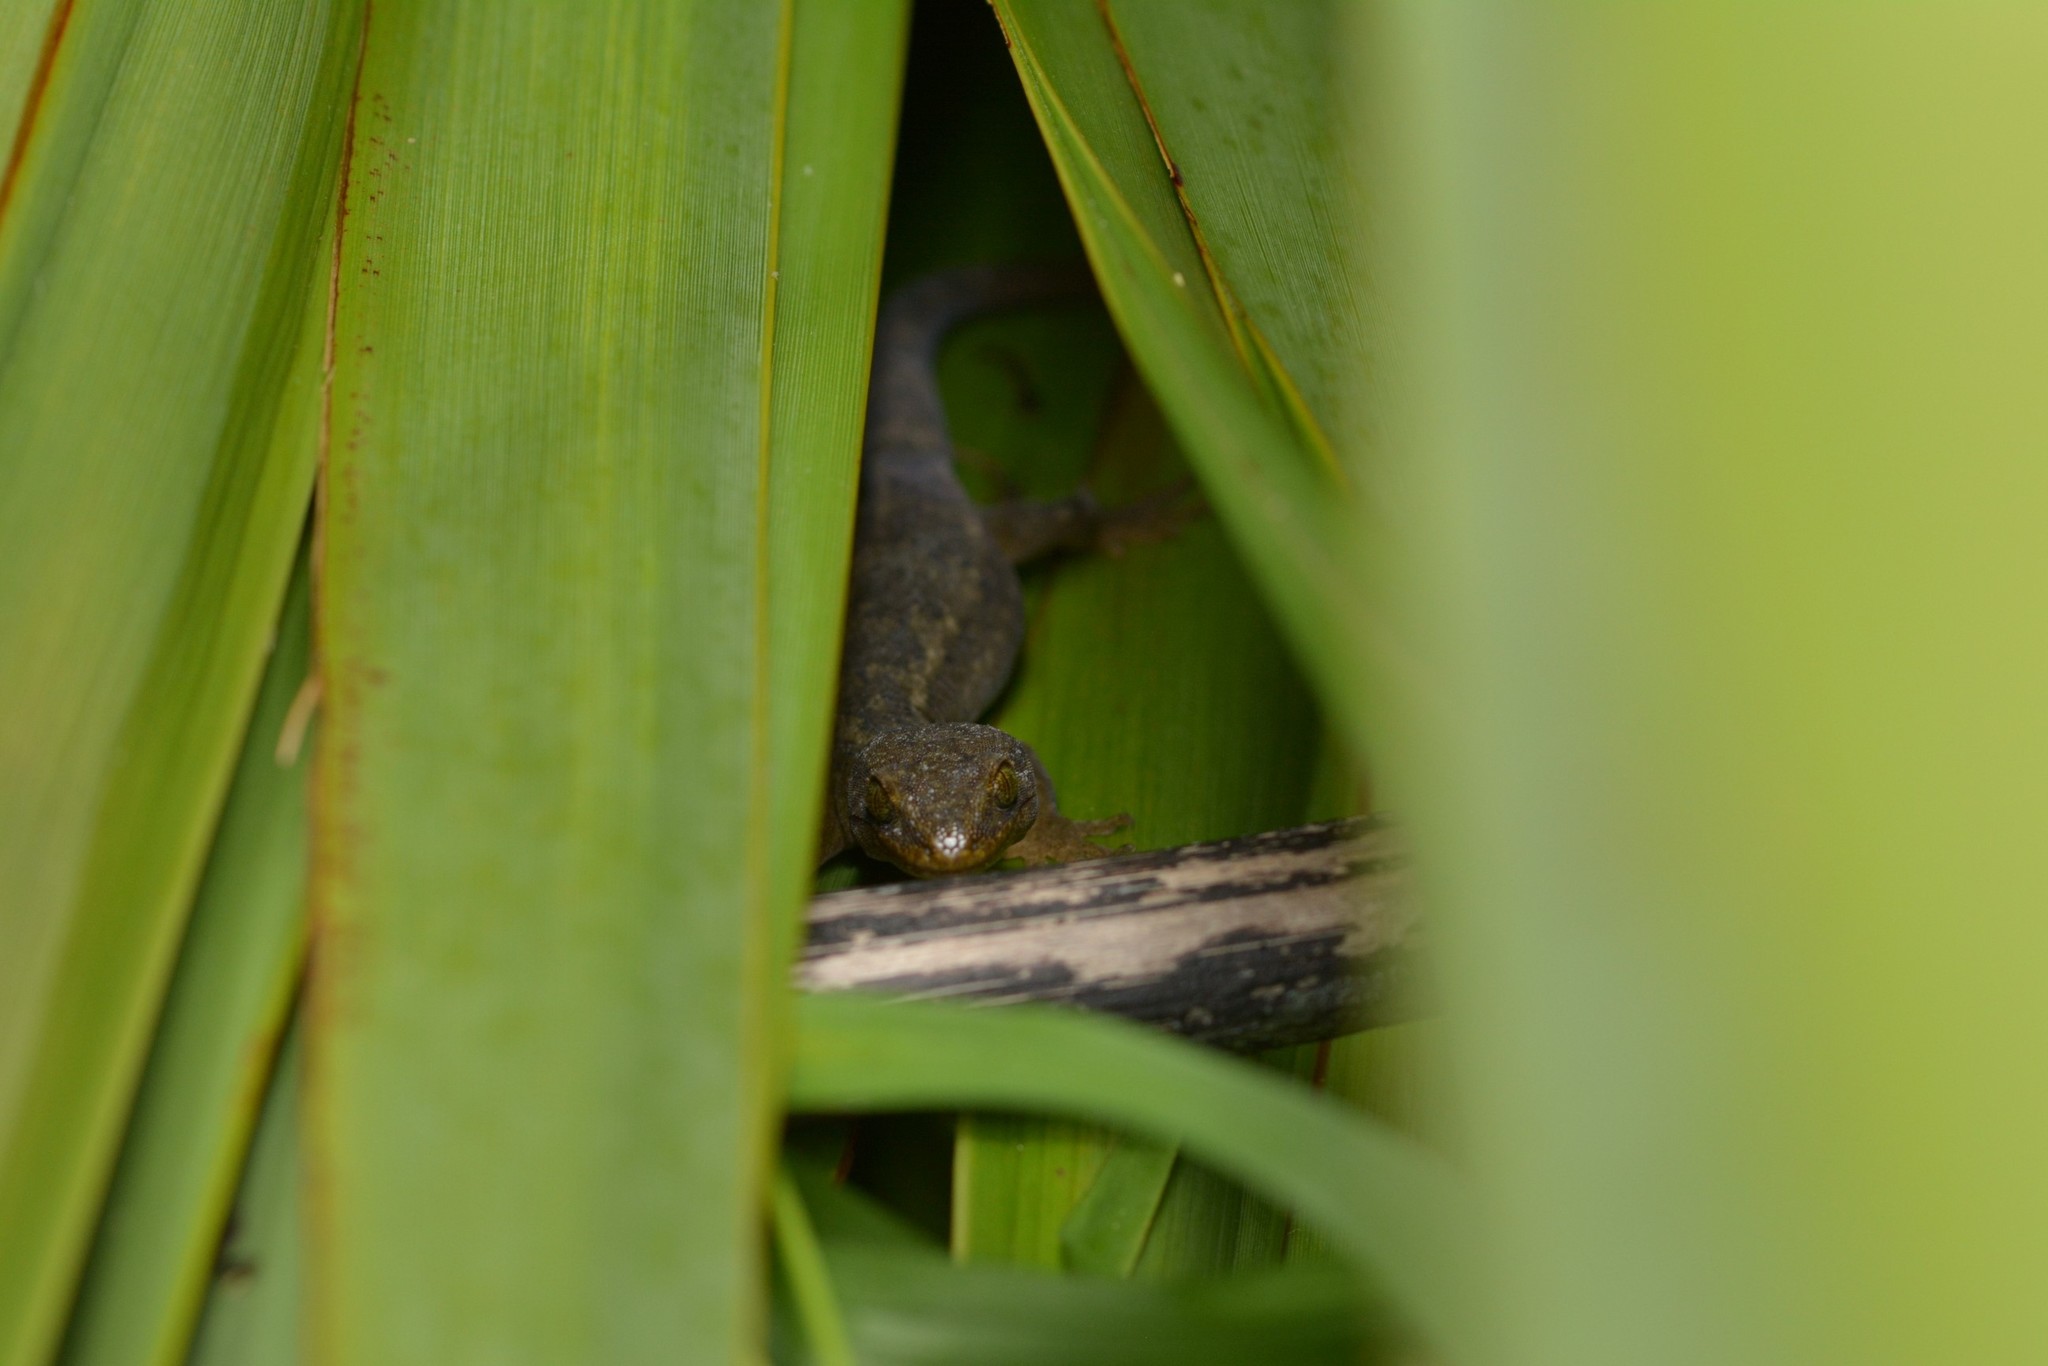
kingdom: Animalia
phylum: Chordata
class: Squamata
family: Diplodactylidae
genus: Woodworthia
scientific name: Woodworthia maculata
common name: Raukawa gecko
